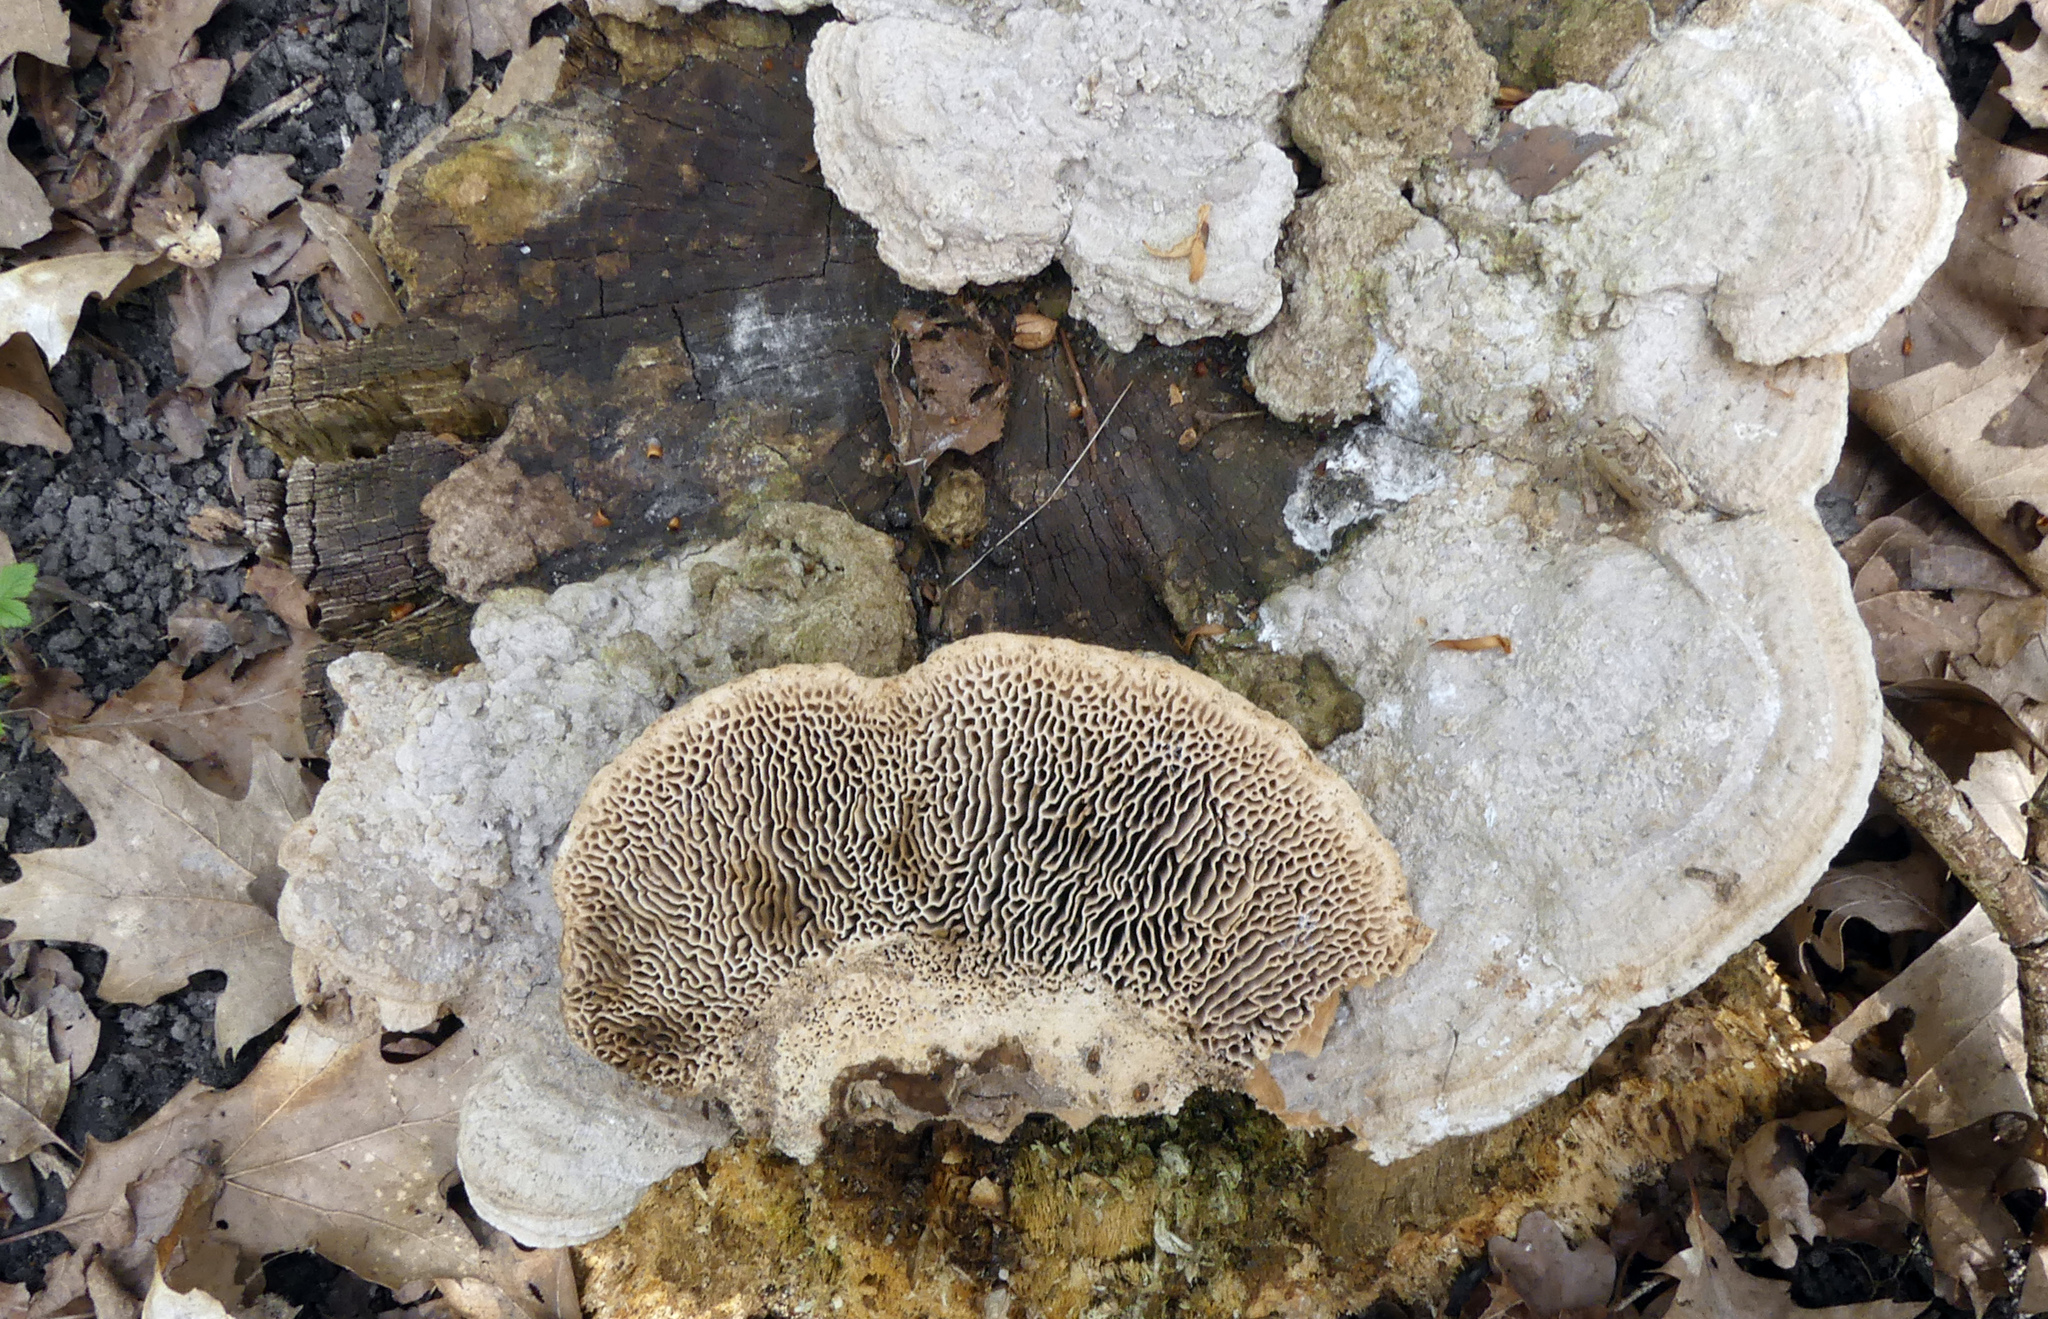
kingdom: Fungi
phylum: Basidiomycota
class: Agaricomycetes
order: Polyporales
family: Fomitopsidaceae
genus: Fomitopsis
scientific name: Fomitopsis
